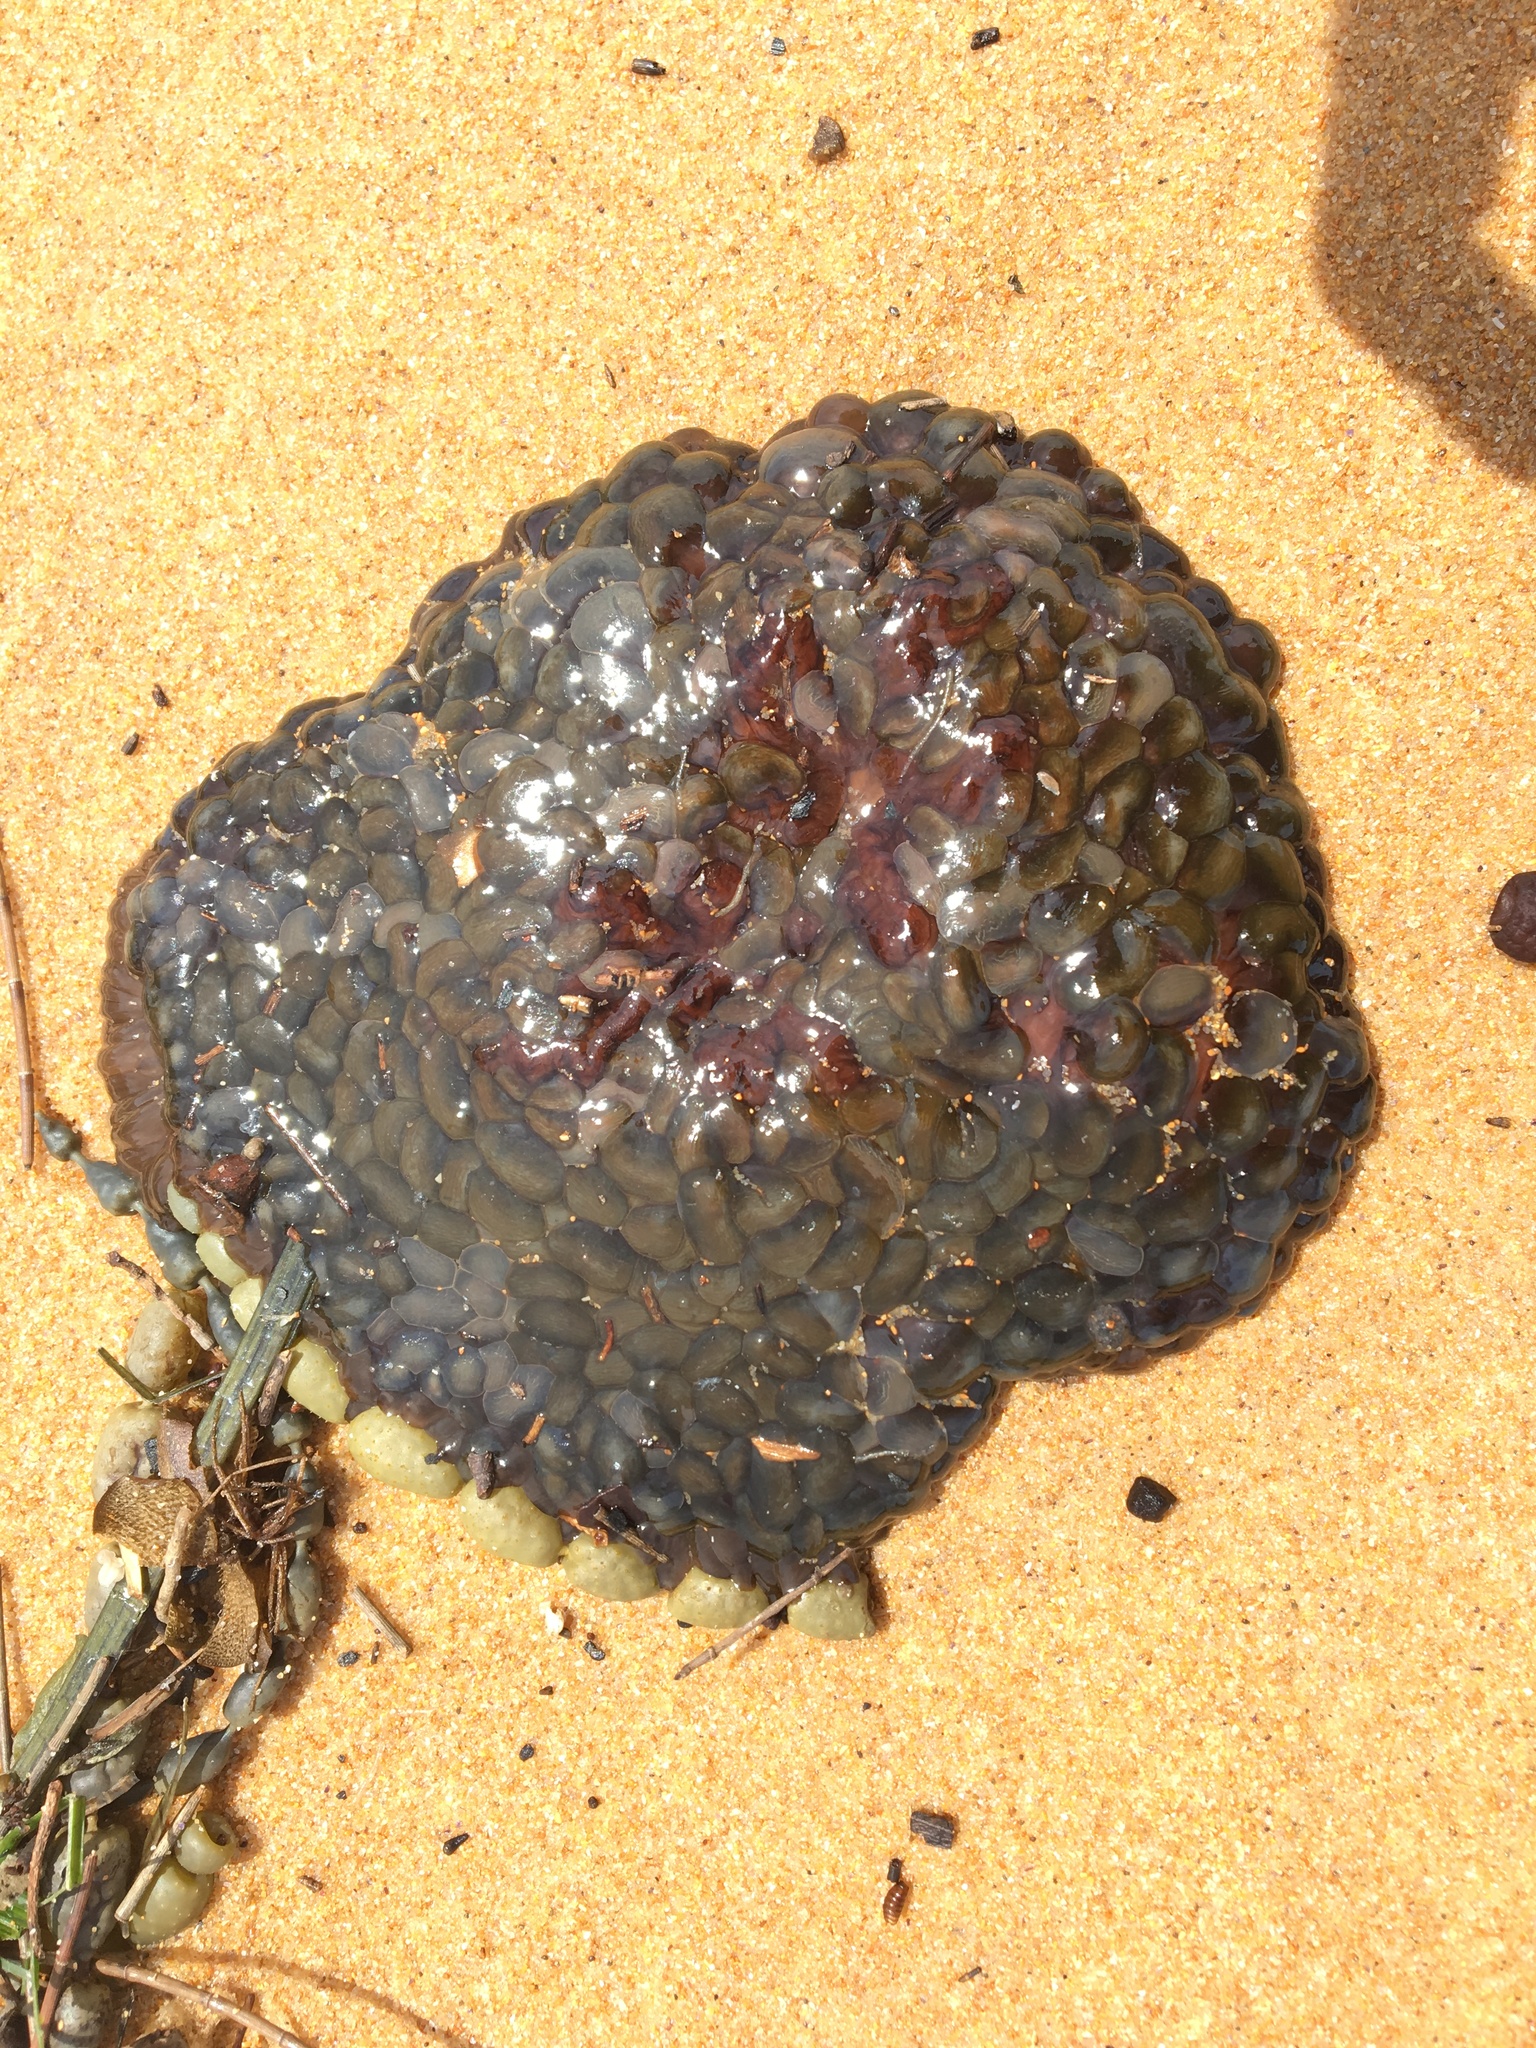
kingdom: Animalia
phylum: Cnidaria
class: Anthozoa
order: Actiniaria
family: Actiniidae
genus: Phlyctenactis
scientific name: Phlyctenactis tuberculosa
